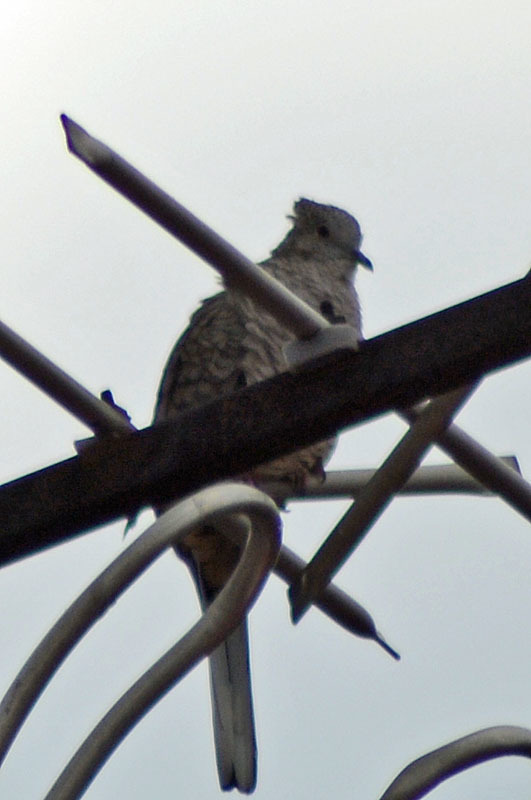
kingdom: Animalia
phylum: Chordata
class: Aves
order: Columbiformes
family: Columbidae
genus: Columbina
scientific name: Columbina inca
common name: Inca dove
